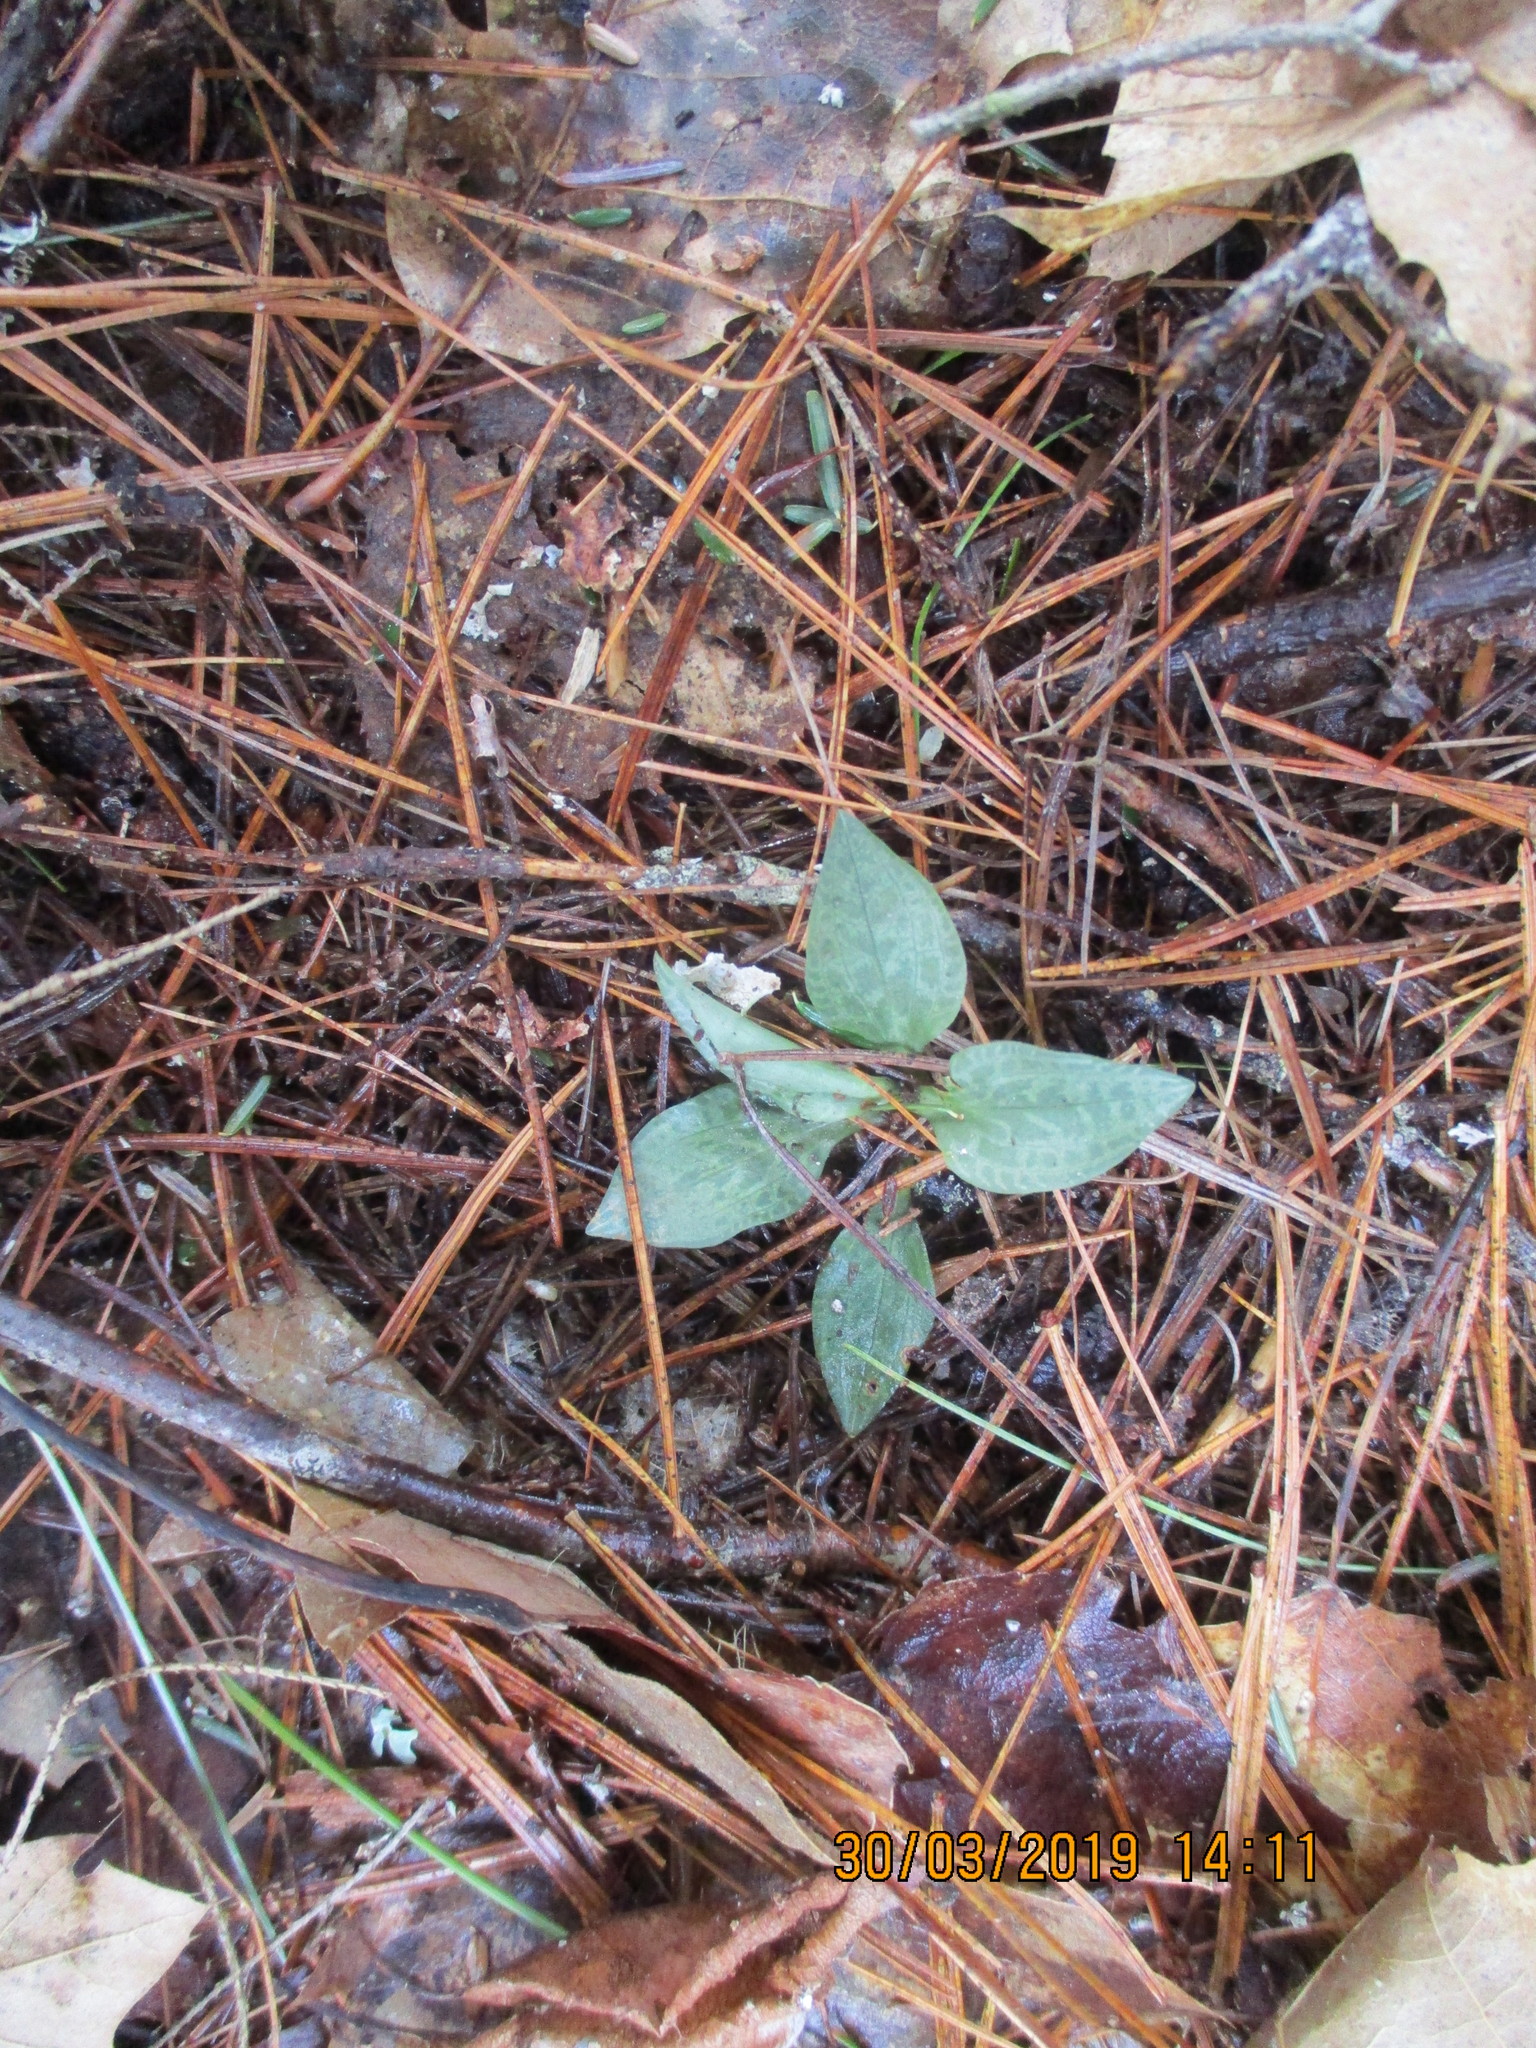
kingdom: Plantae
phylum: Tracheophyta
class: Liliopsida
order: Asparagales
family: Orchidaceae
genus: Goodyera
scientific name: Goodyera tesselata
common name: Checkered rattlesnake-plantain
